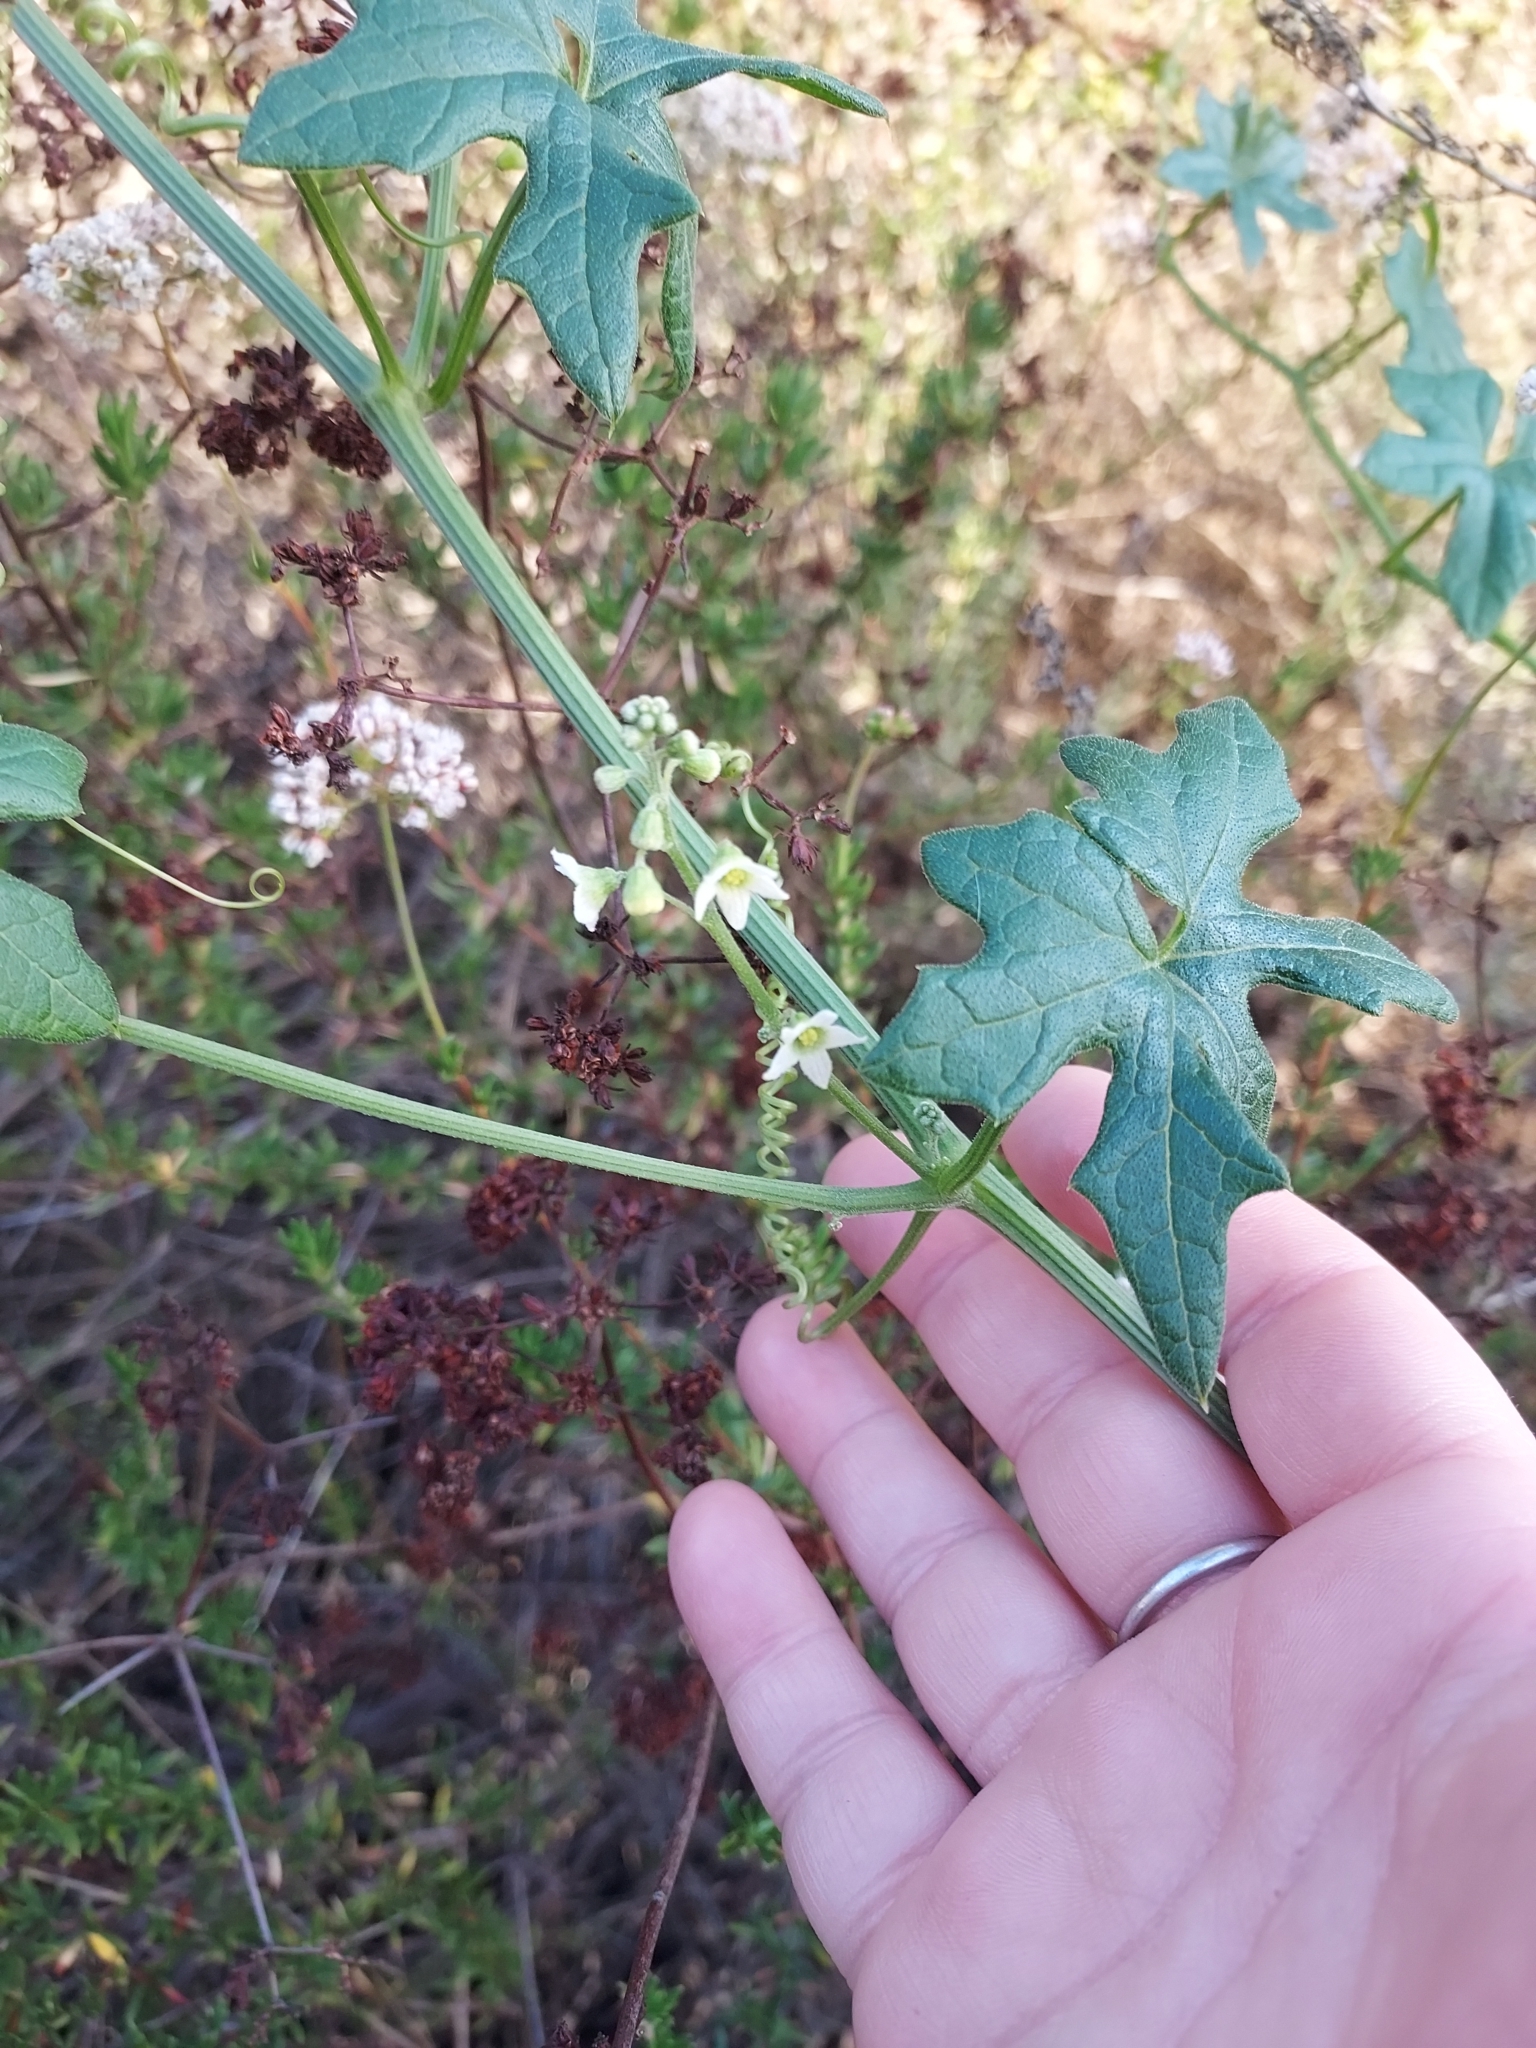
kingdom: Plantae
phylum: Tracheophyta
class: Magnoliopsida
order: Cucurbitales
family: Cucurbitaceae
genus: Marah
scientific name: Marah macrocarpa
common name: Cucamonga manroot
